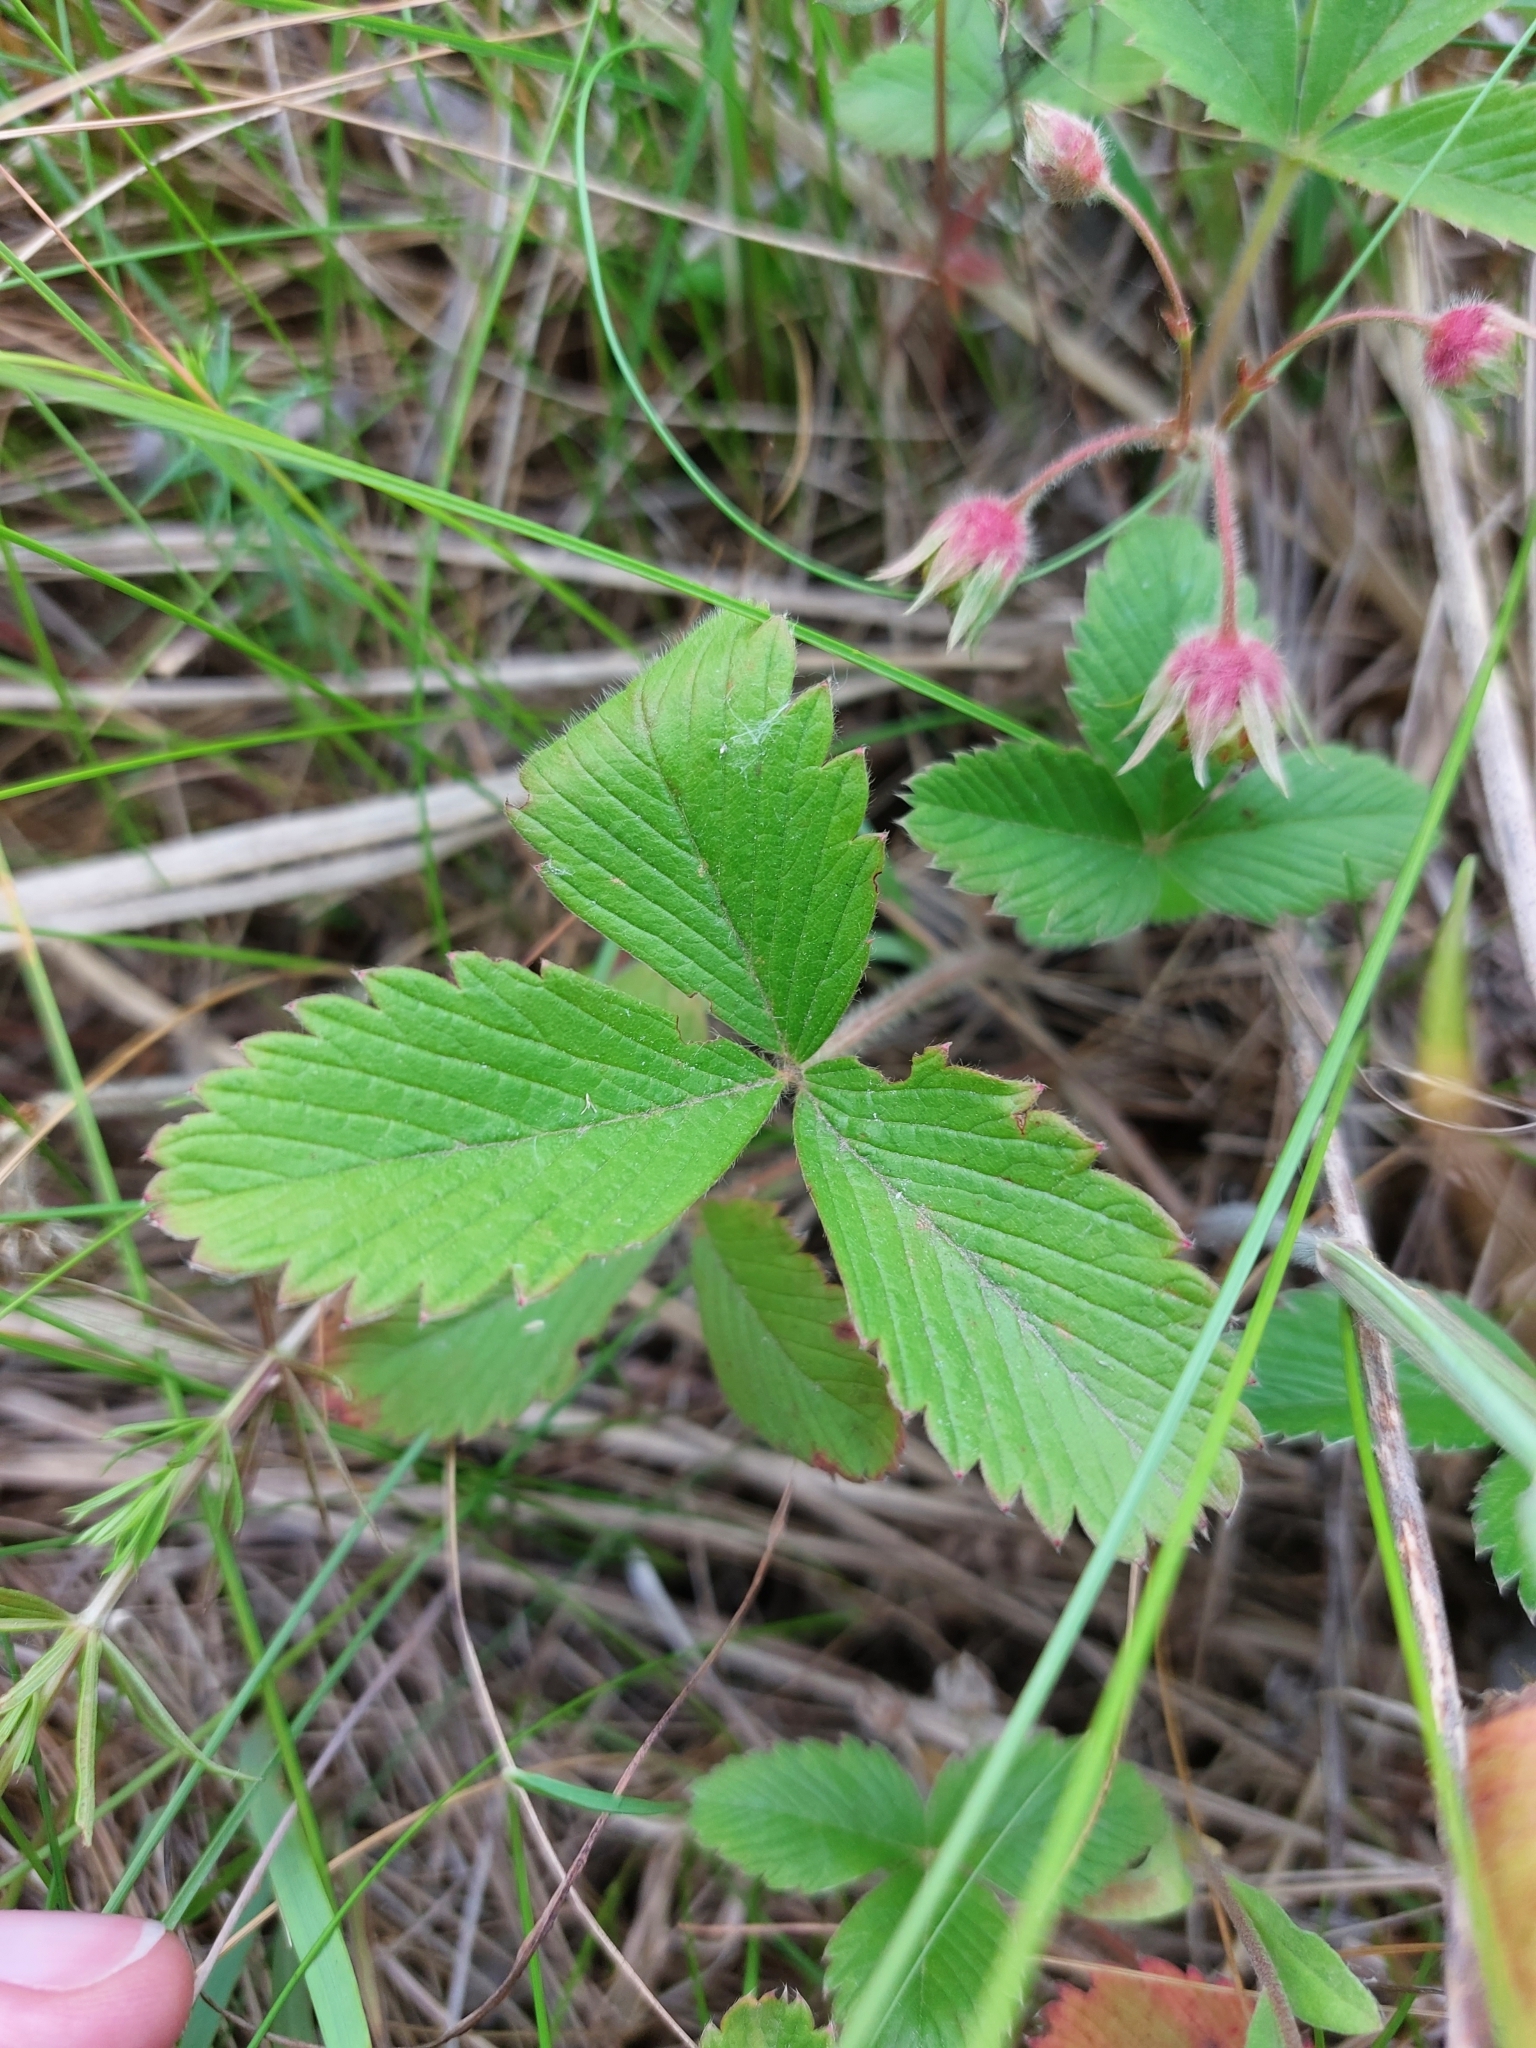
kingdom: Plantae
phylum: Tracheophyta
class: Magnoliopsida
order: Rosales
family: Rosaceae
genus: Fragaria
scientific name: Fragaria viridis
